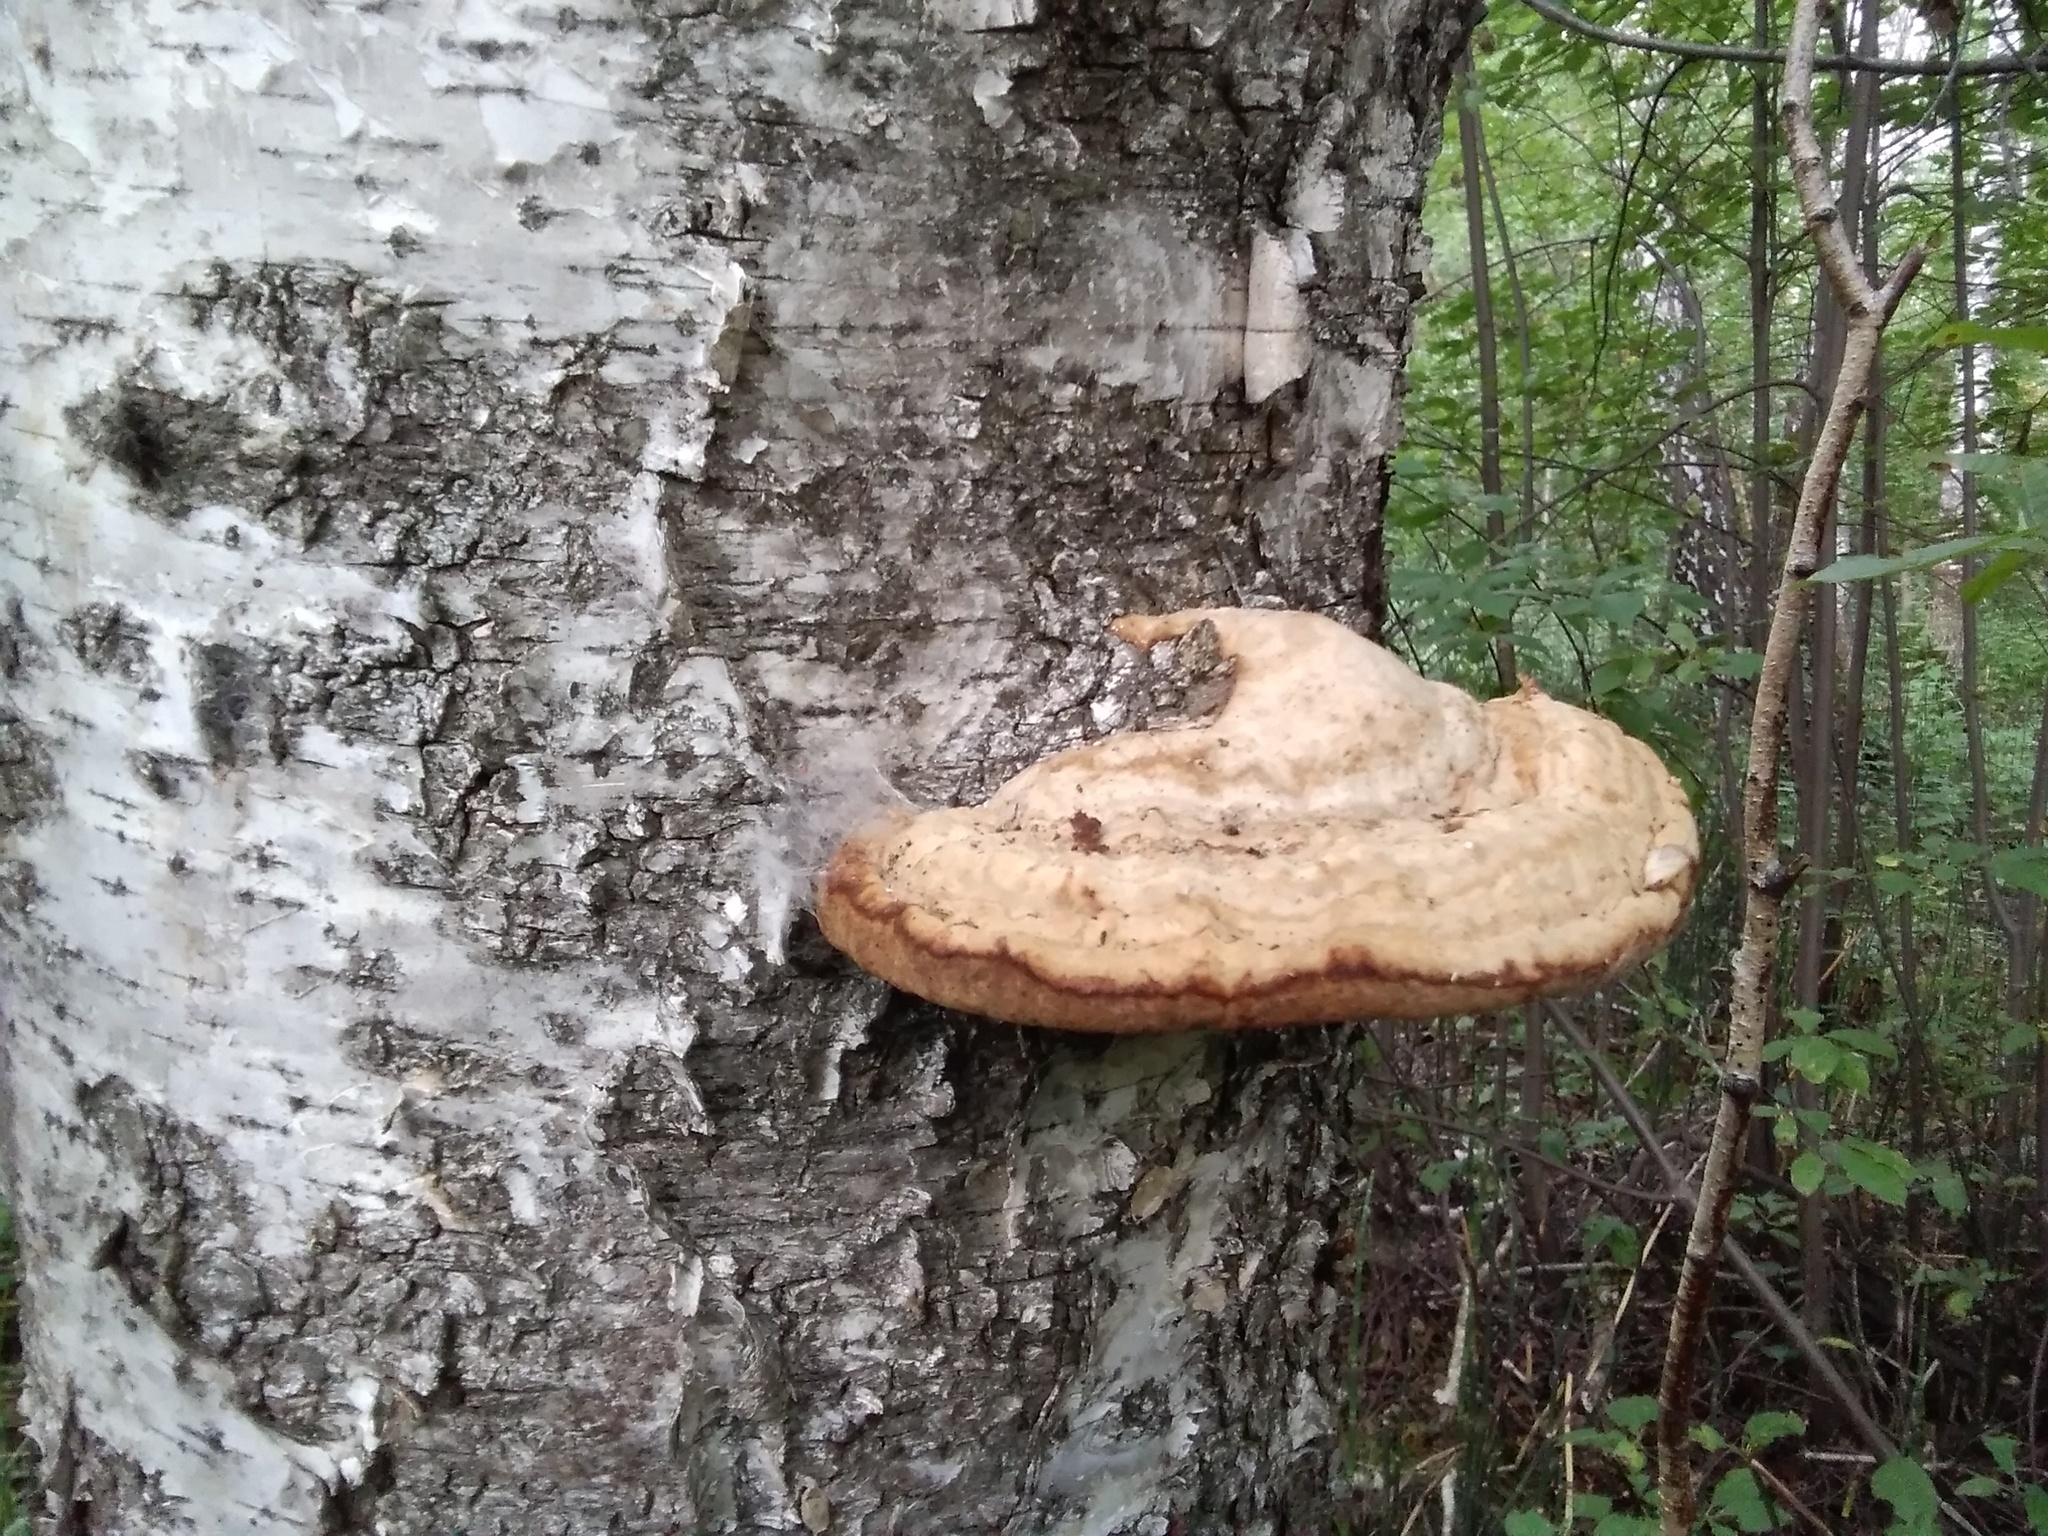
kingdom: Fungi
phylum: Basidiomycota
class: Agaricomycetes
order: Polyporales
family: Polyporaceae
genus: Fomes
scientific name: Fomes fomentarius
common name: Hoof fungus
